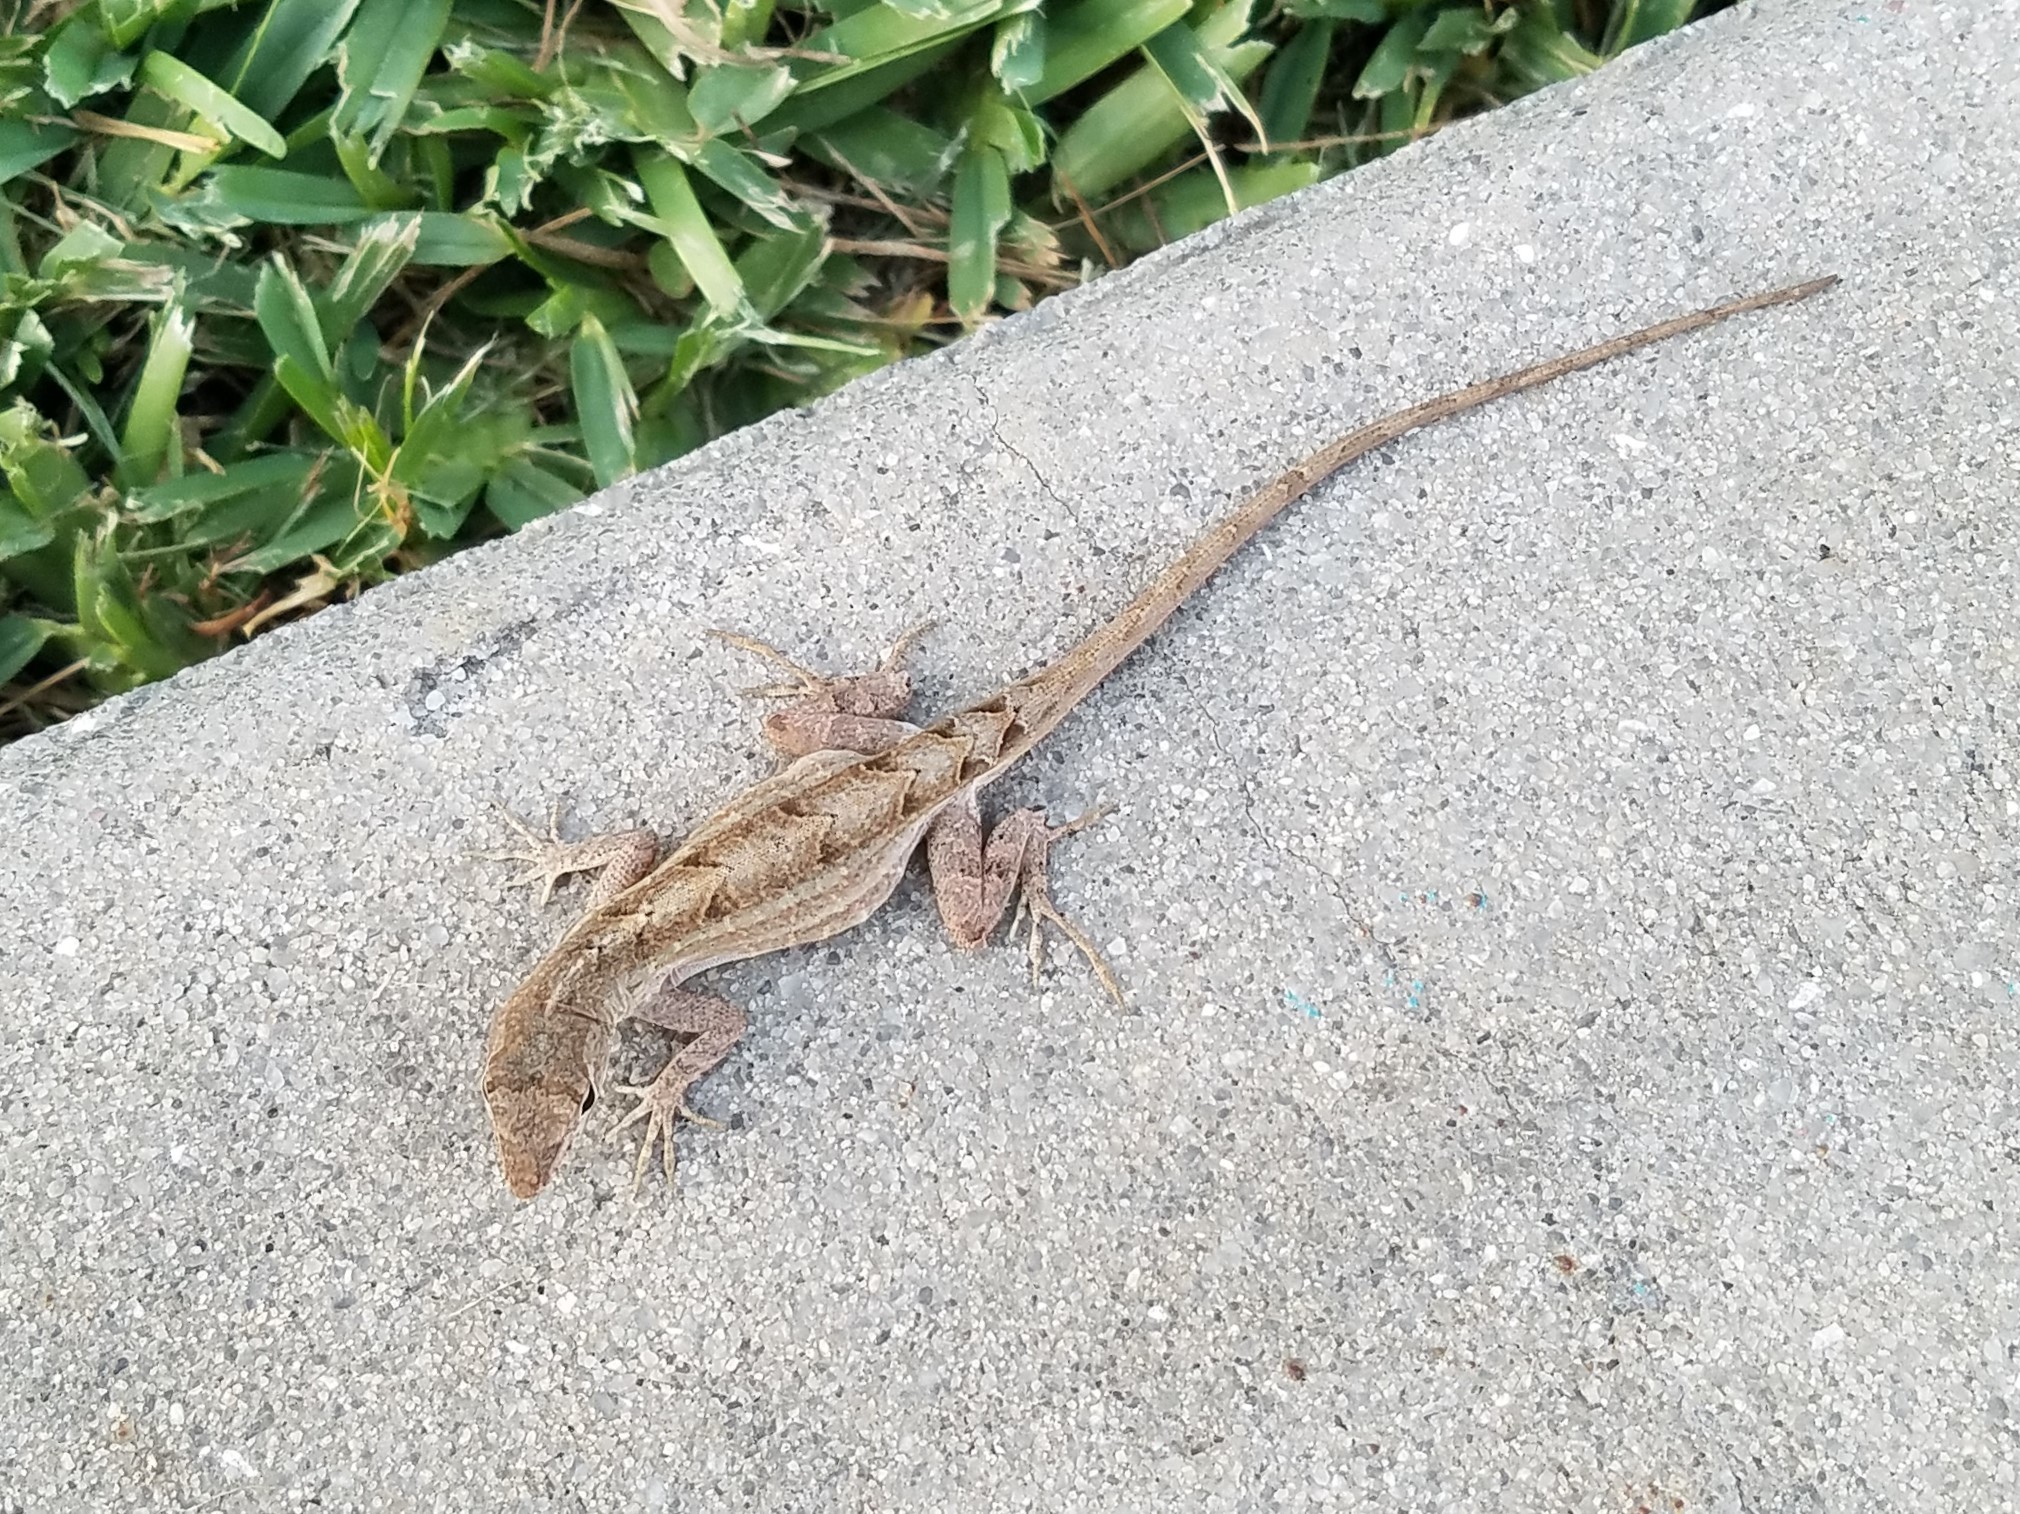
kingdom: Animalia
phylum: Chordata
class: Squamata
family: Dactyloidae
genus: Anolis
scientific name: Anolis sagrei
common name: Brown anole
